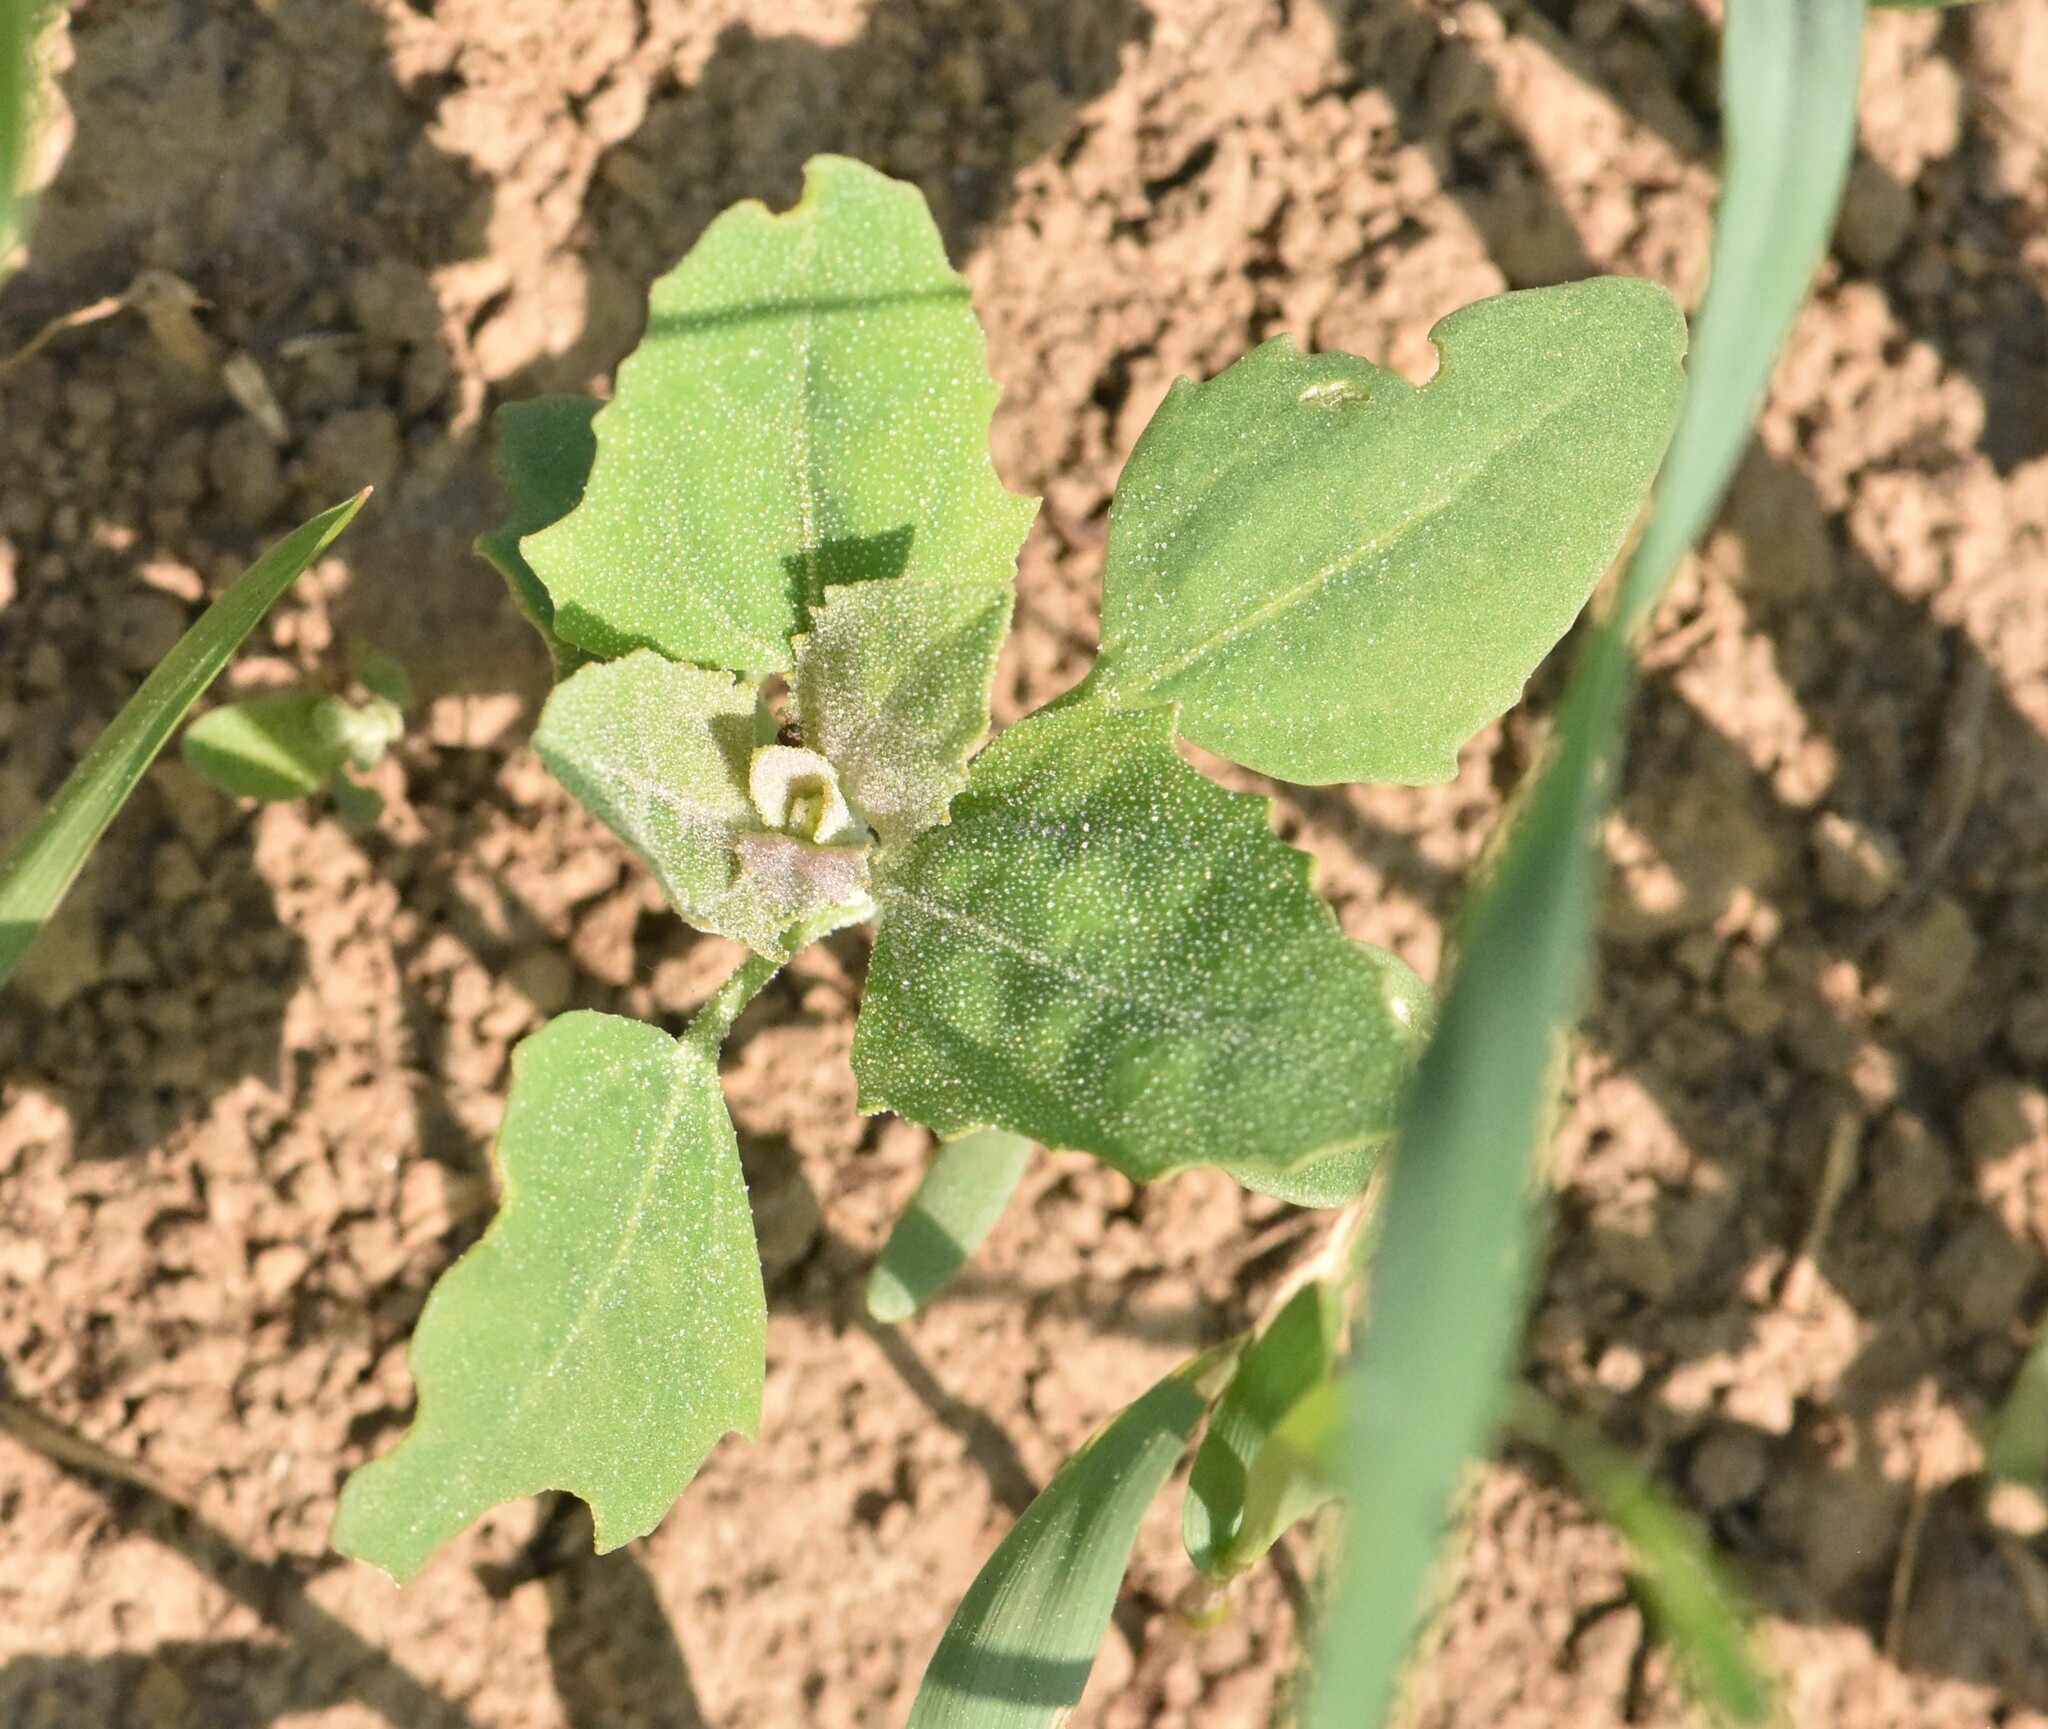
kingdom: Plantae
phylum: Tracheophyta
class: Magnoliopsida
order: Caryophyllales
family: Amaranthaceae
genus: Chenopodium
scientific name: Chenopodium album
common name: Fat-hen
